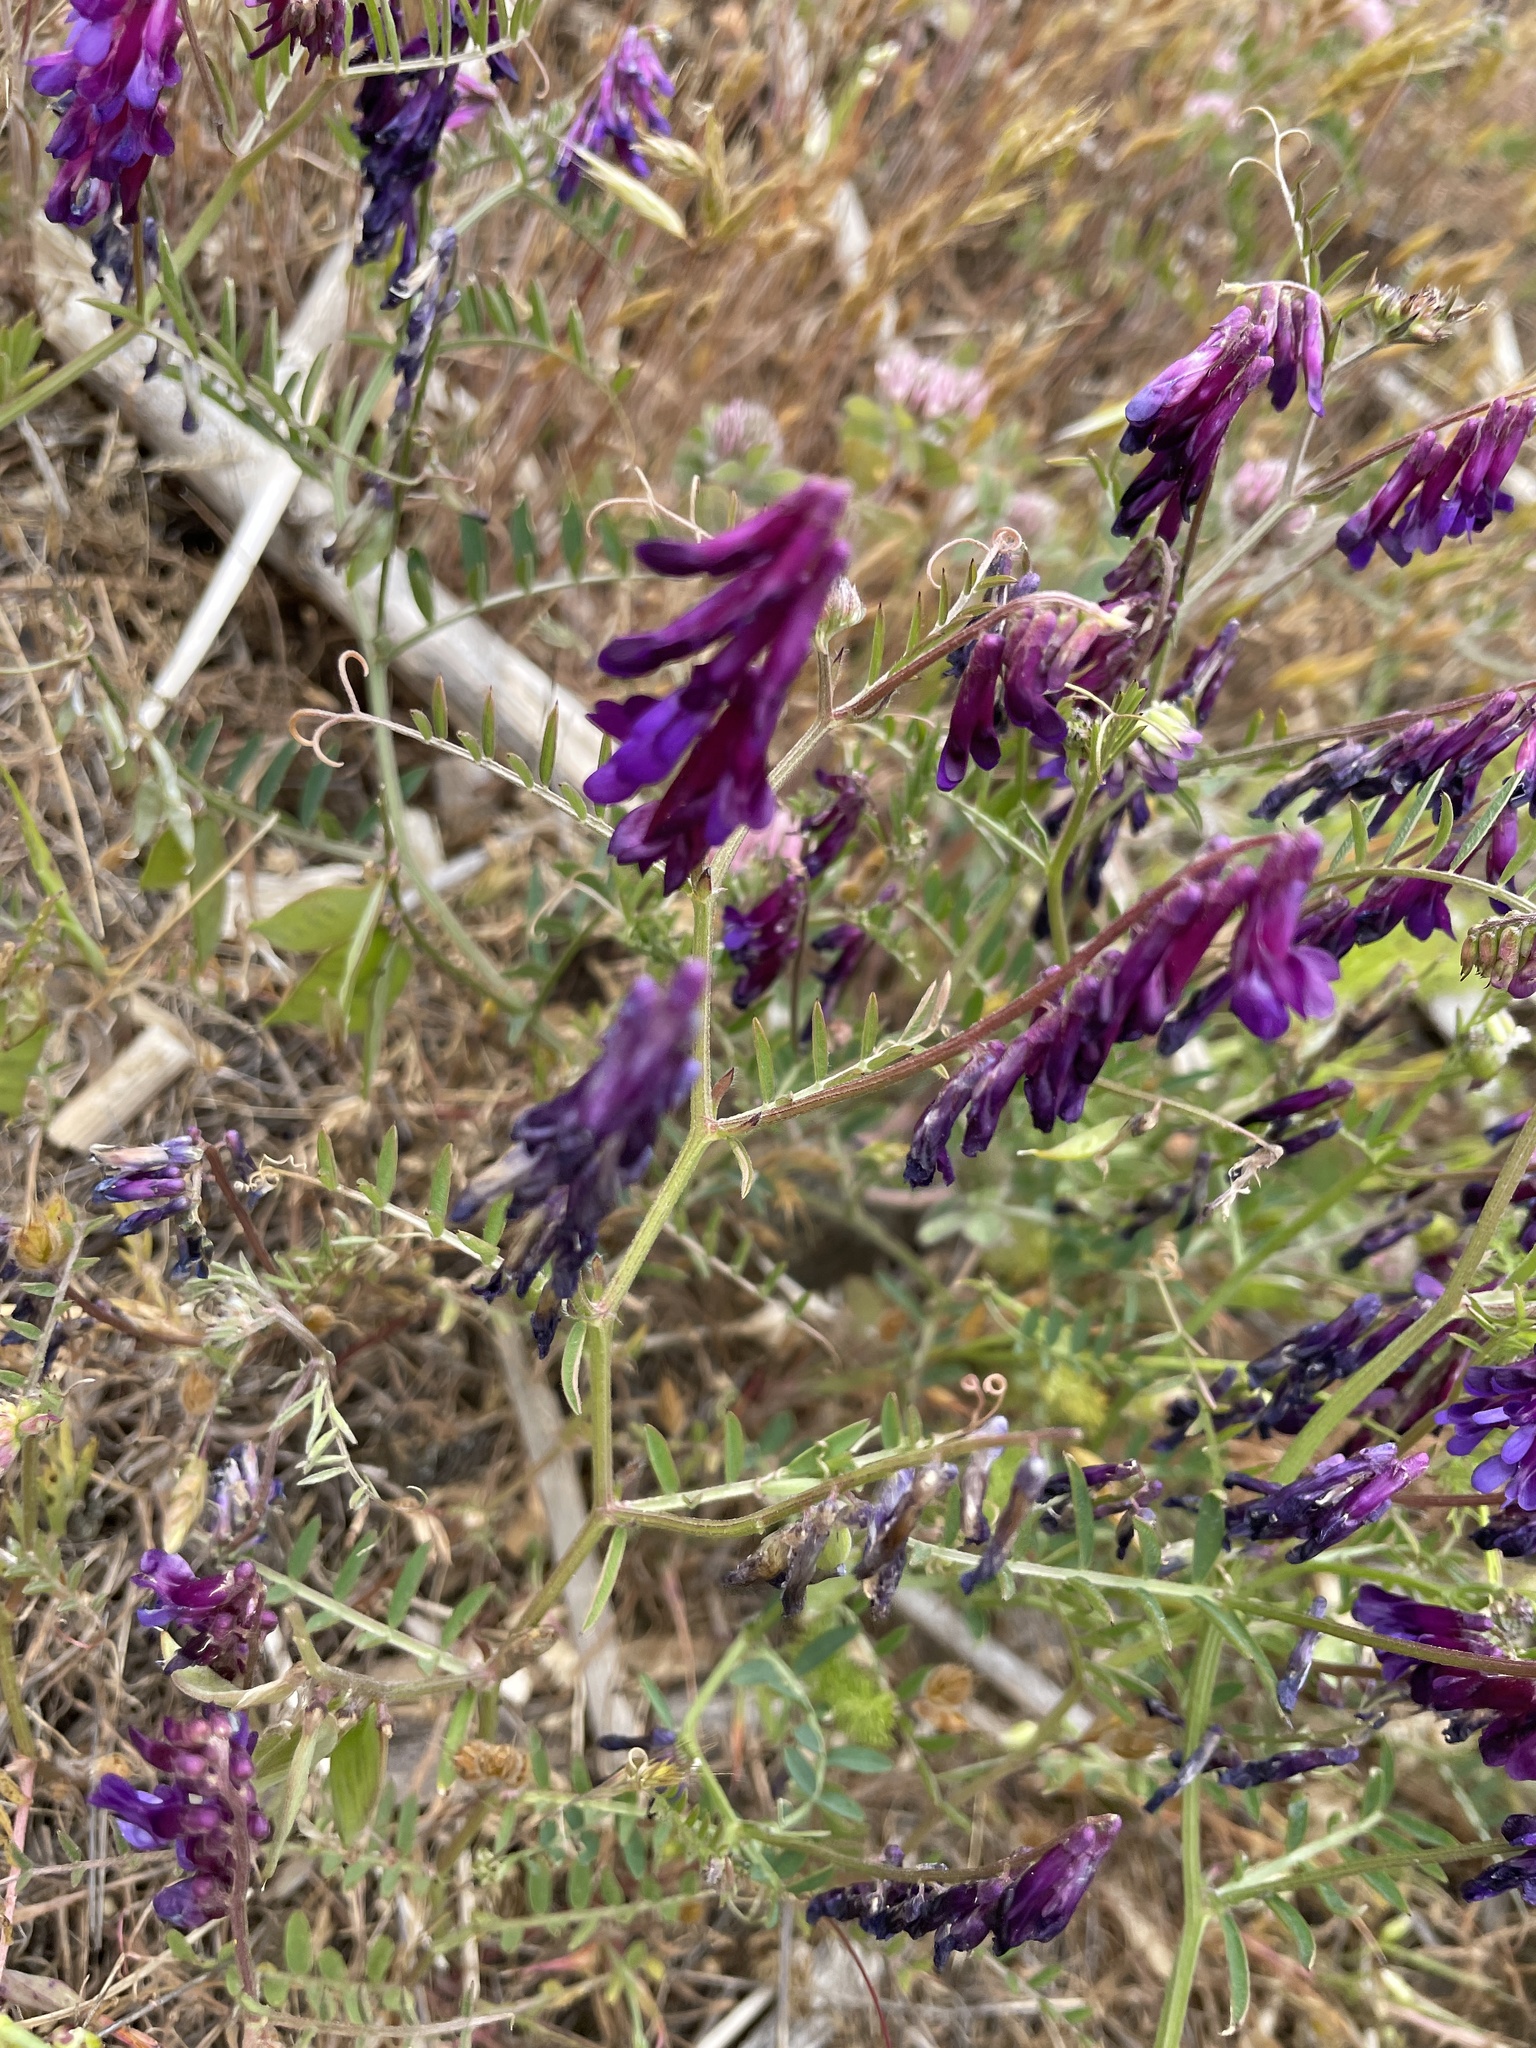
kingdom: Plantae
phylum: Tracheophyta
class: Magnoliopsida
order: Fabales
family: Fabaceae
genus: Vicia
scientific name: Vicia villosa
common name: Fodder vetch
